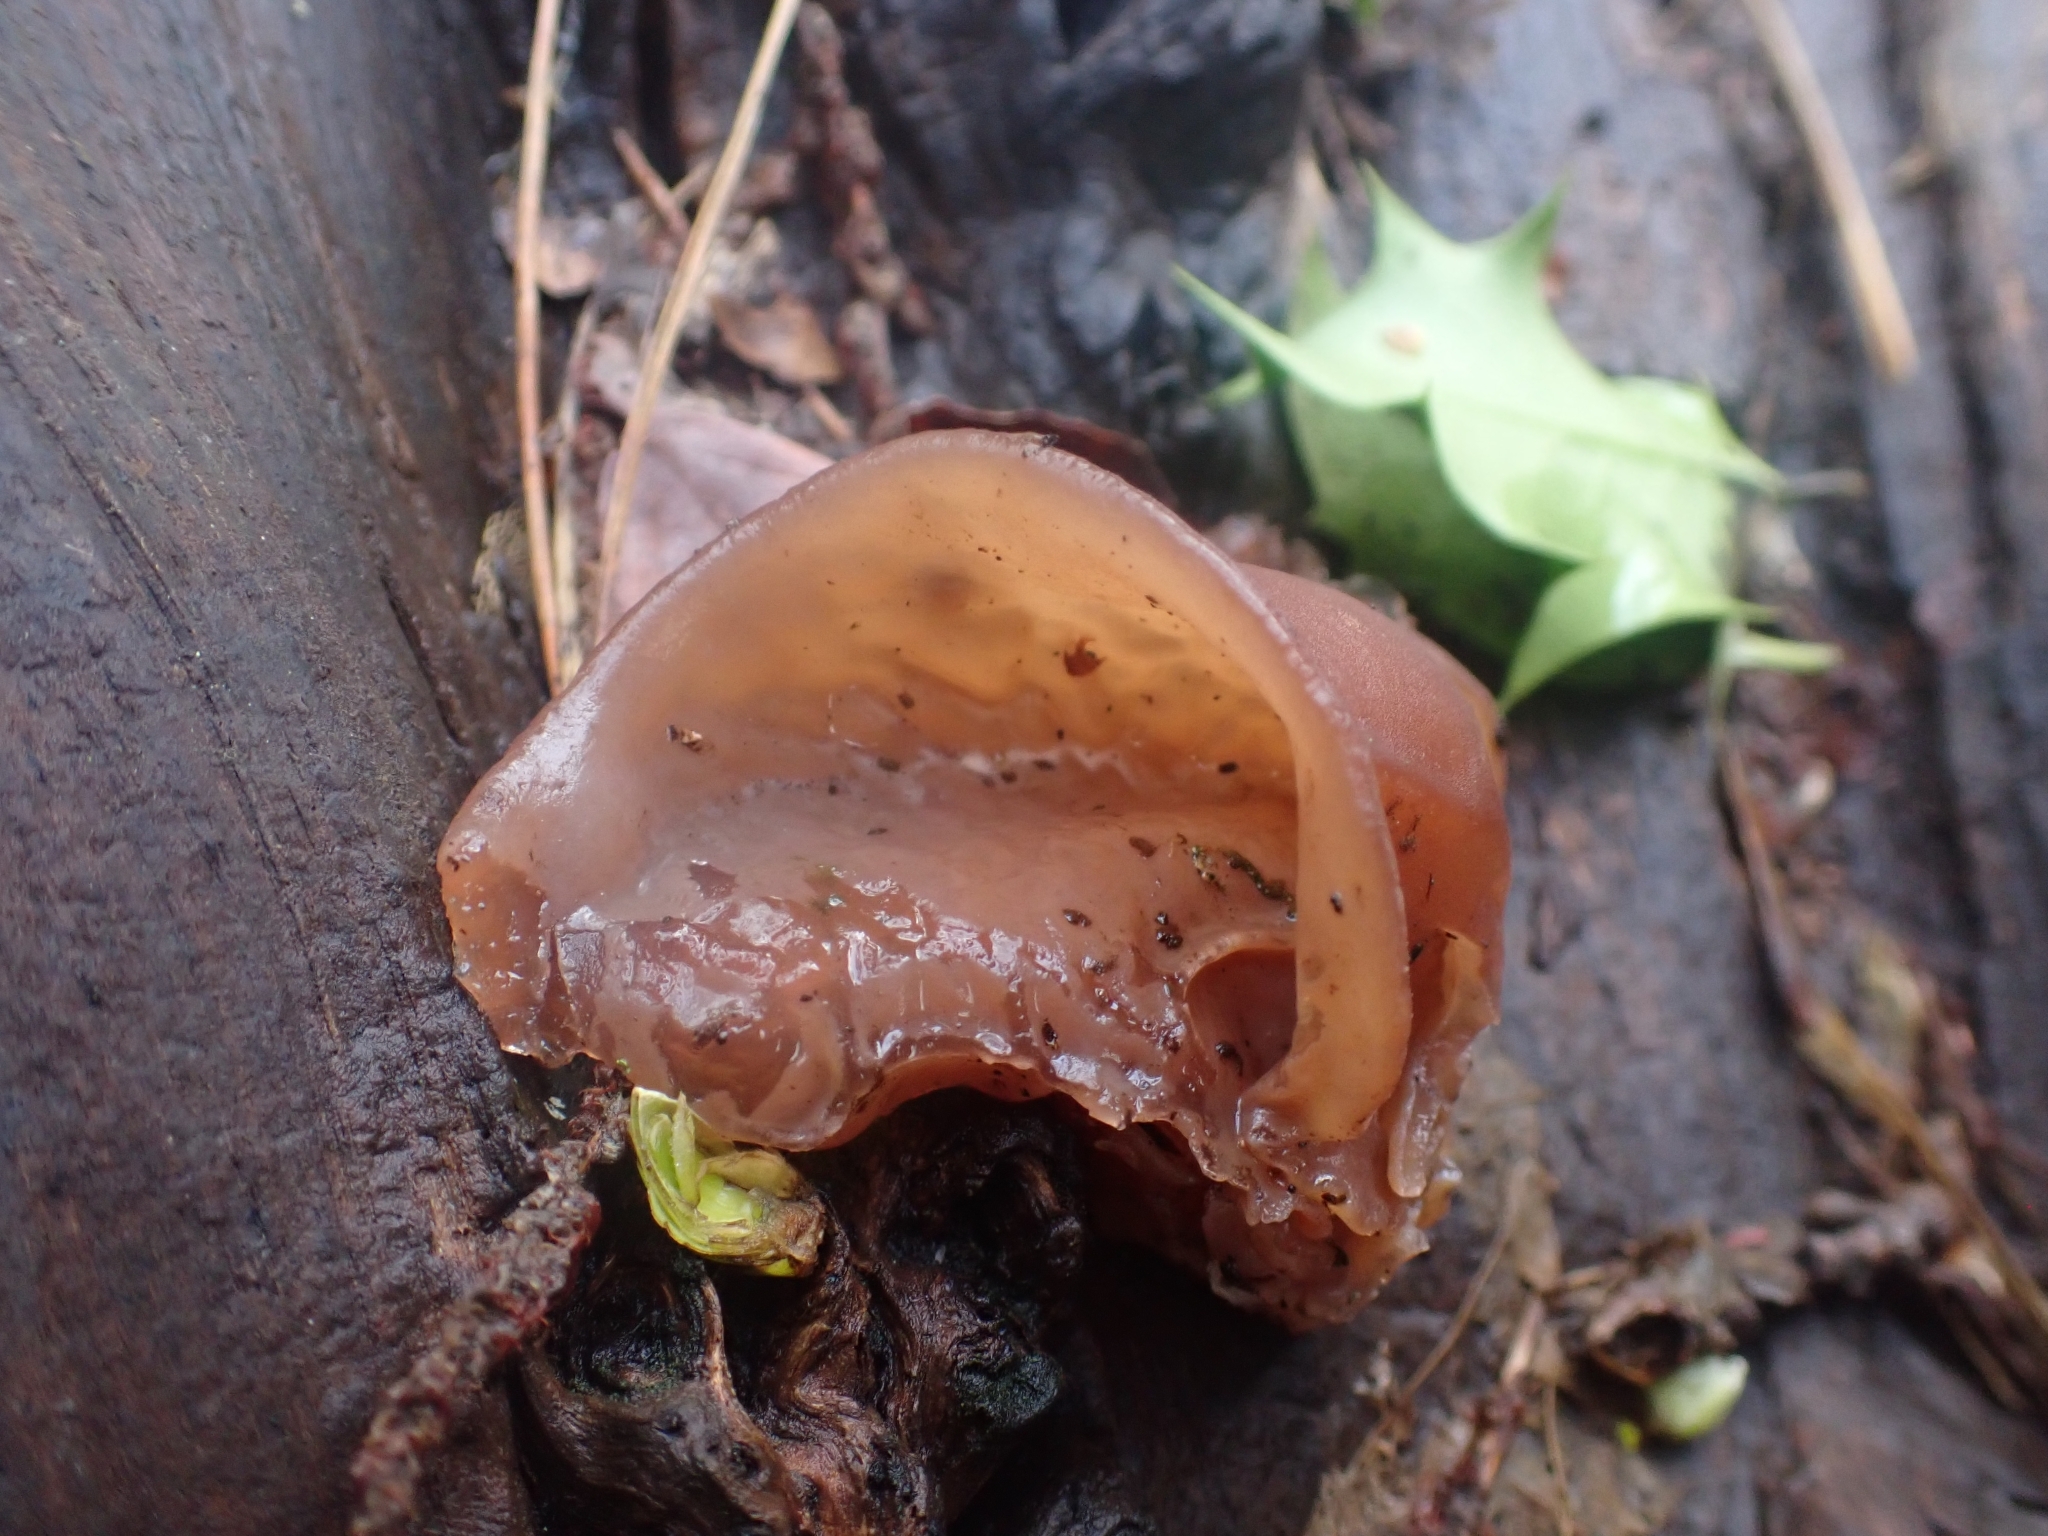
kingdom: Fungi
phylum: Basidiomycota
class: Agaricomycetes
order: Auriculariales
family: Auriculariaceae
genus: Auricularia
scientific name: Auricularia auricula-judae
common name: Jelly ear
